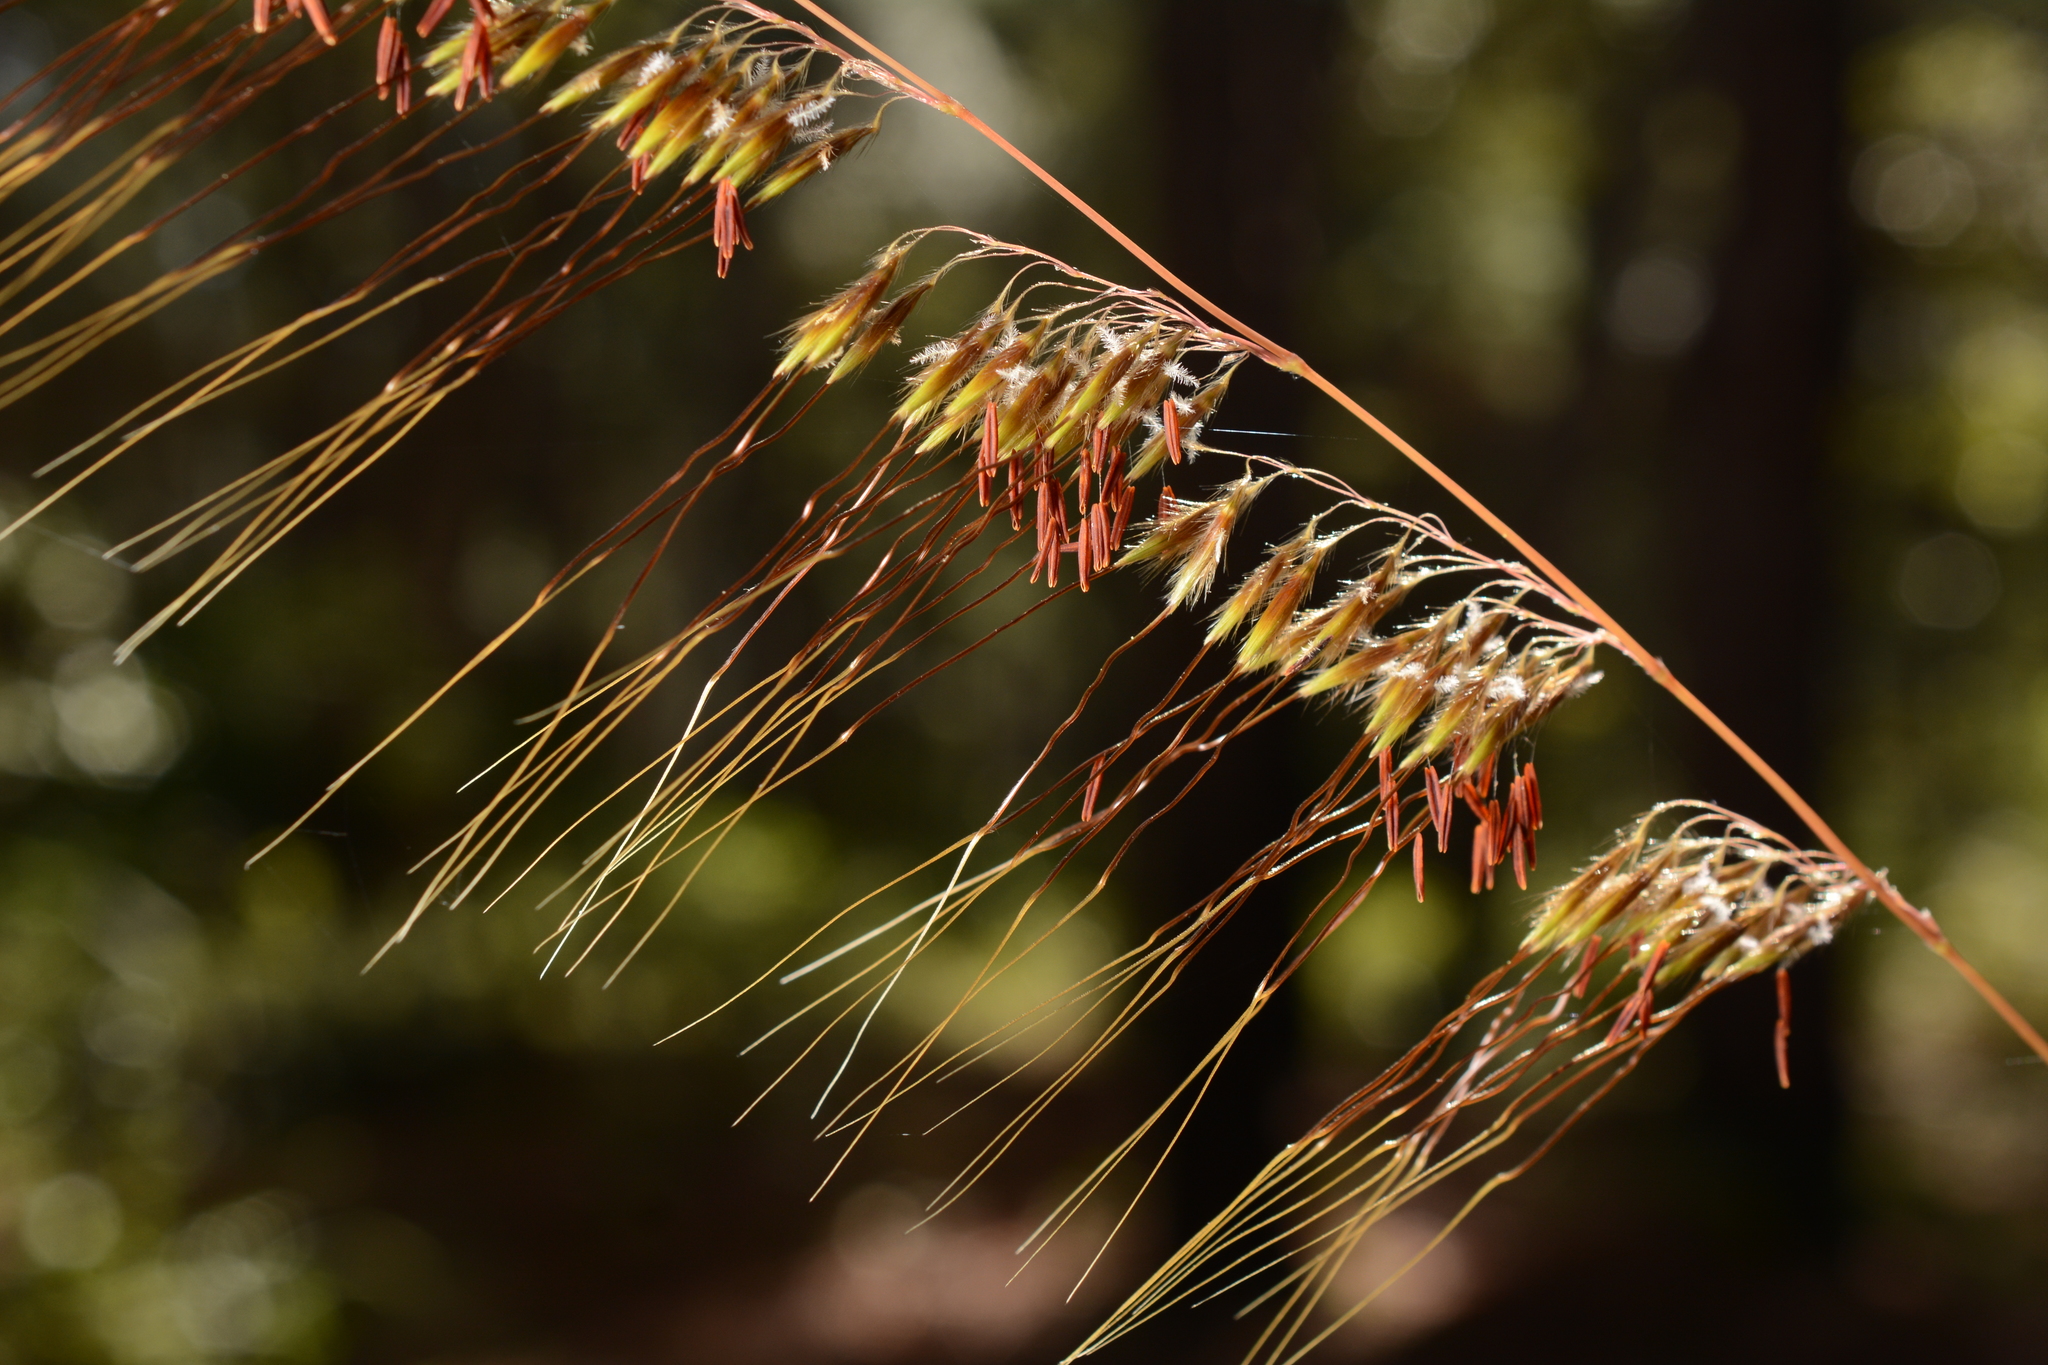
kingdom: Plantae
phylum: Tracheophyta
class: Liliopsida
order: Poales
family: Poaceae
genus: Sorghastrum
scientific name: Sorghastrum secundum
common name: Lopsided indian grass
